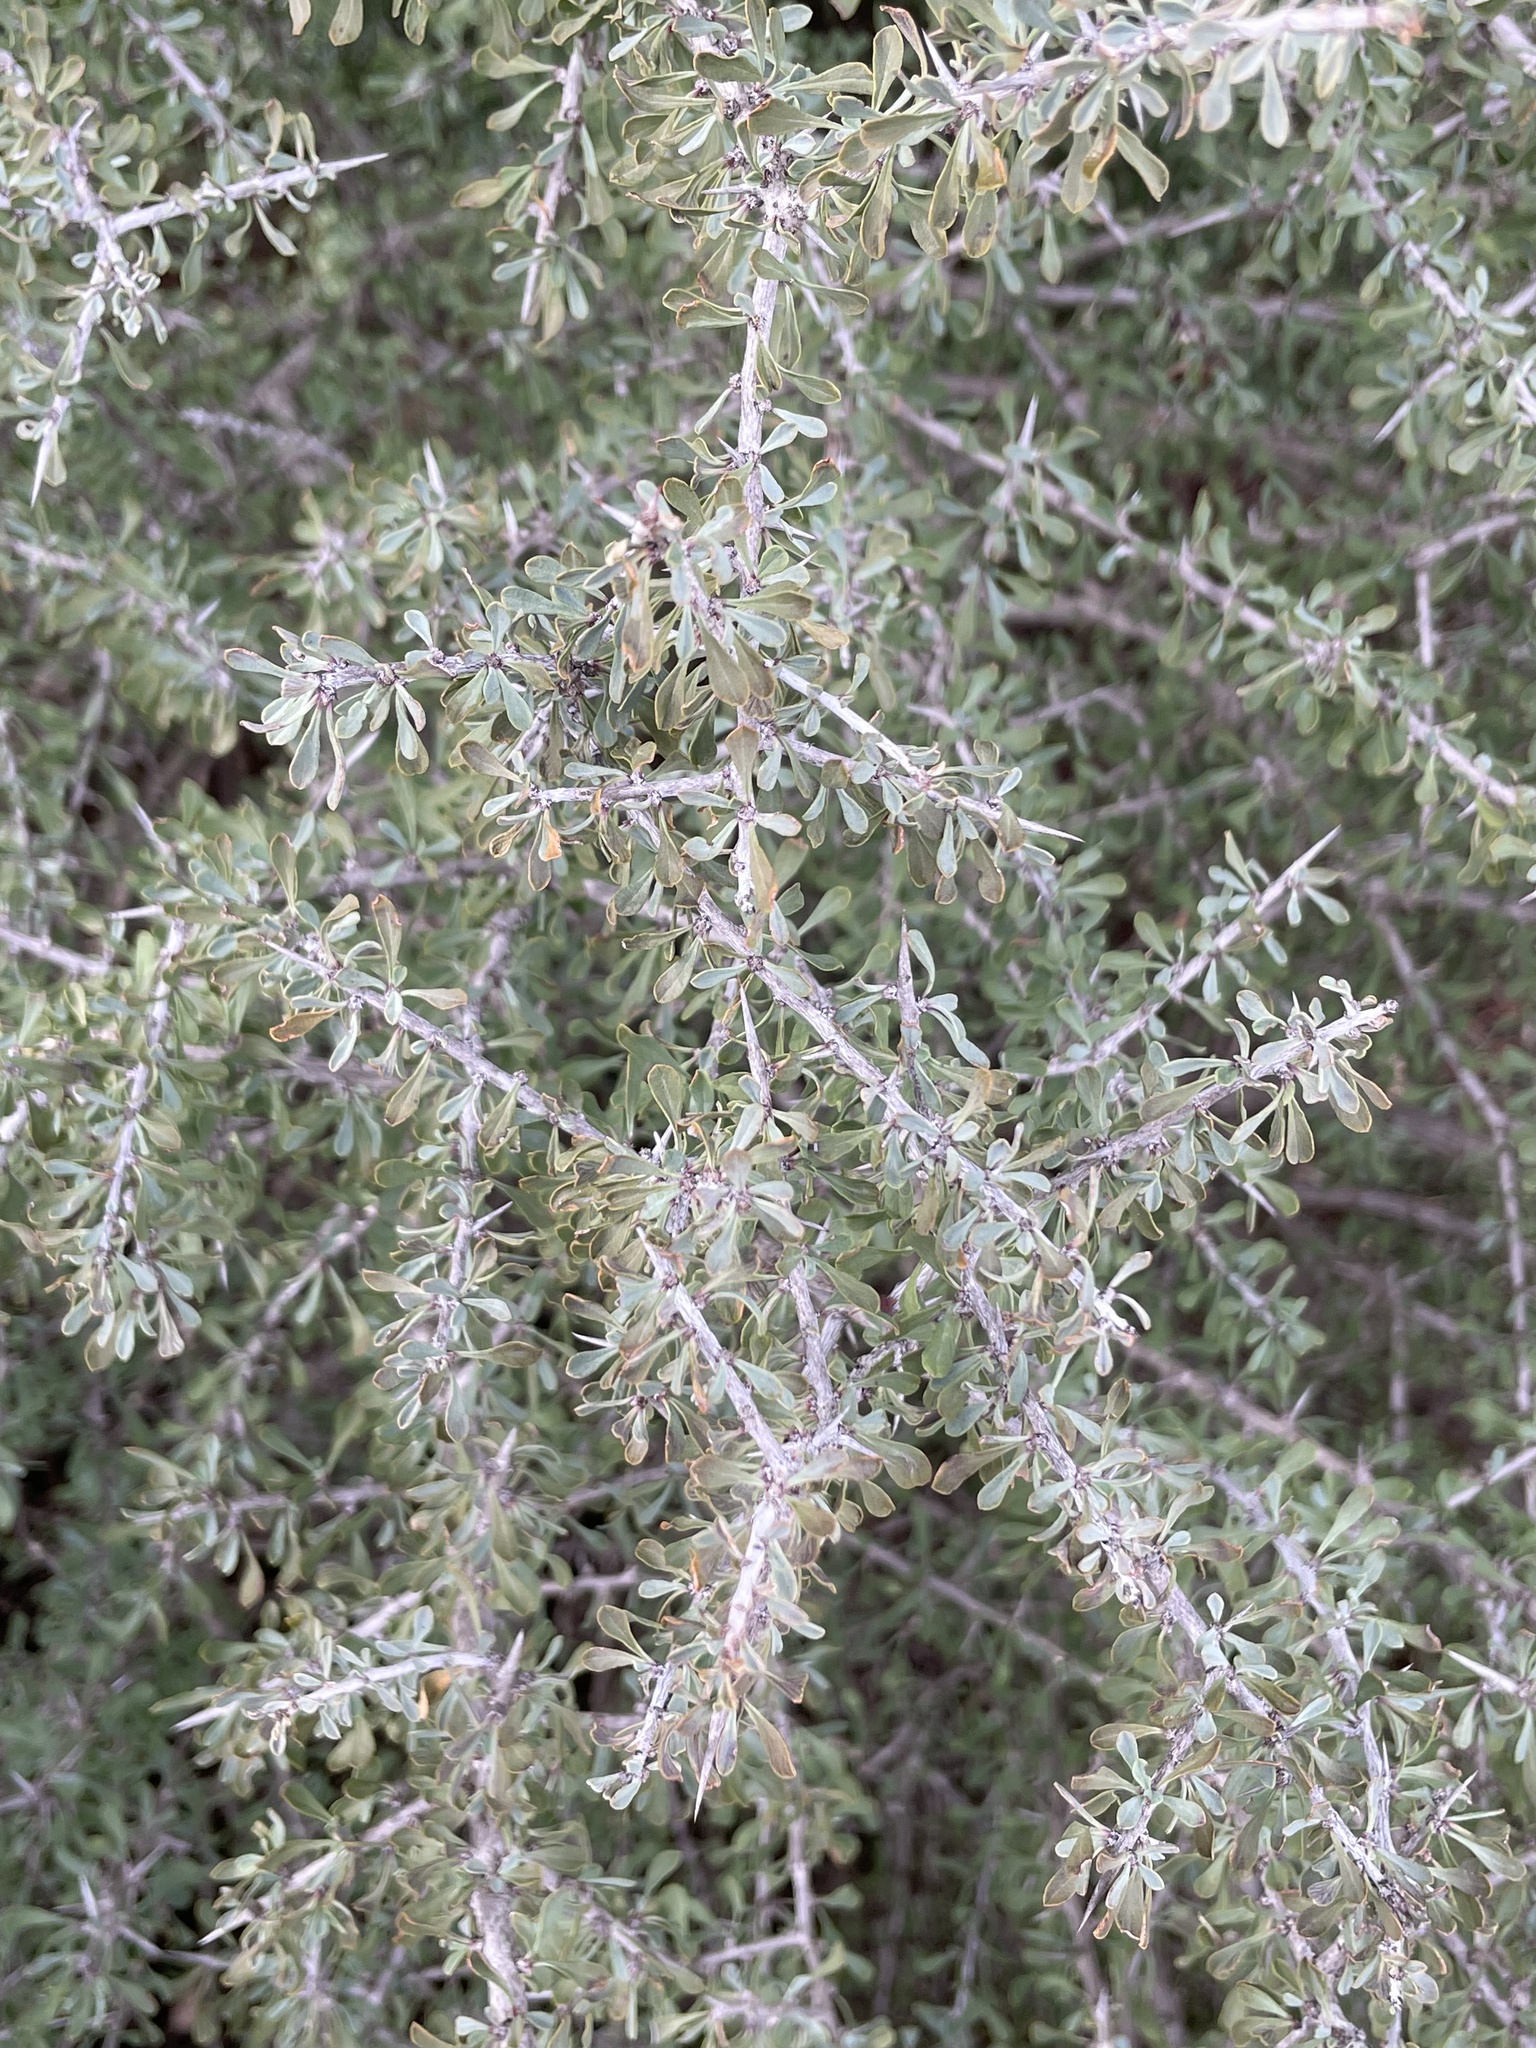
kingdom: Plantae
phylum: Tracheophyta
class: Magnoliopsida
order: Rosales
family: Rhamnaceae
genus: Condalia
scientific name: Condalia spathulata
